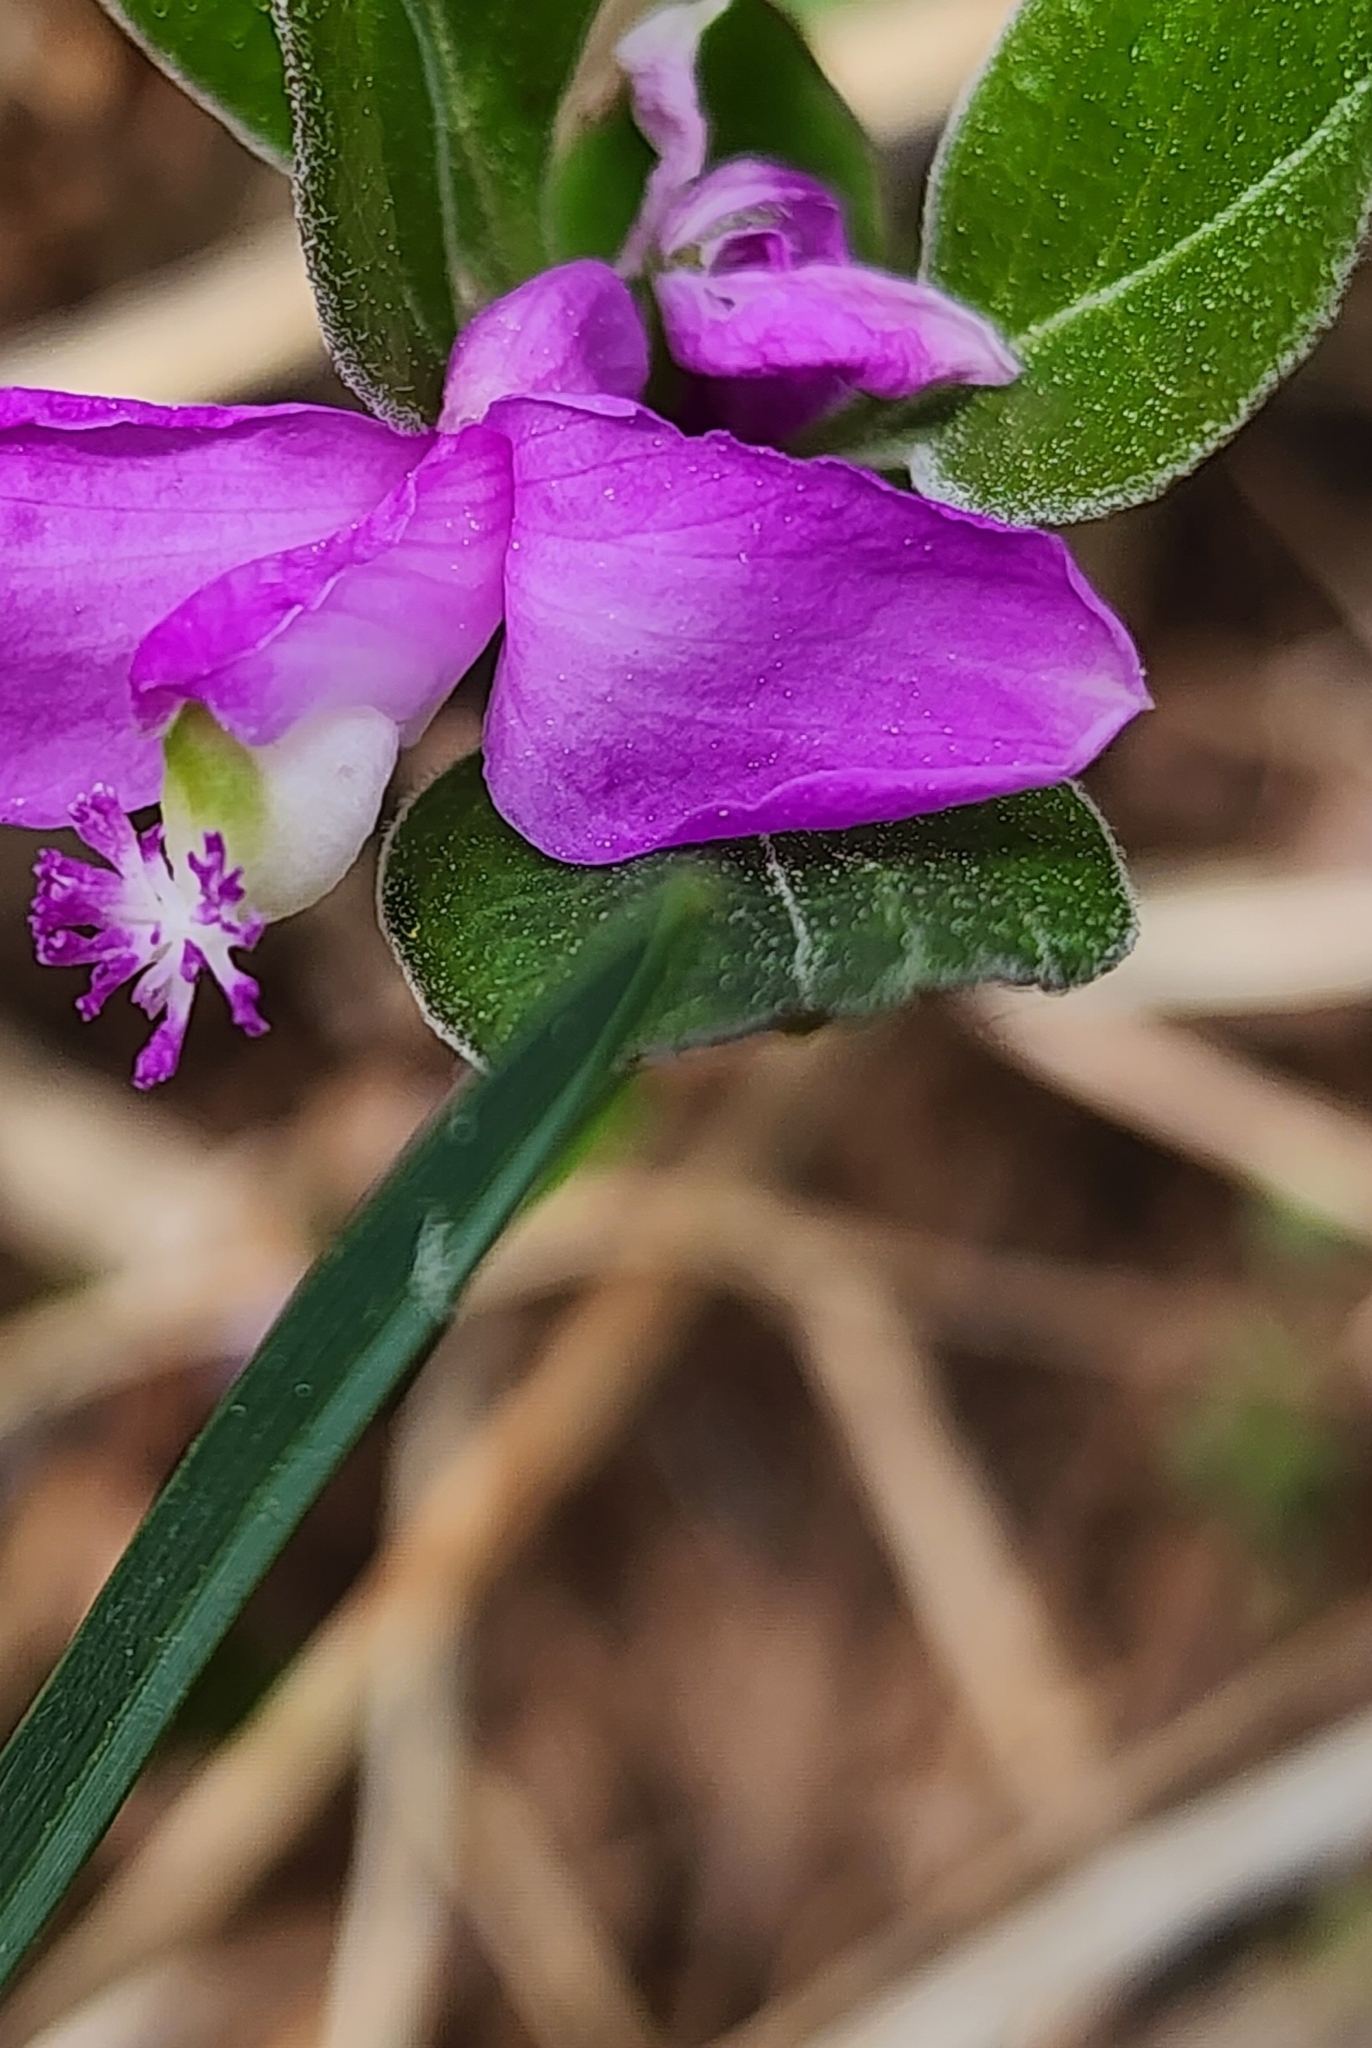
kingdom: Plantae
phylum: Tracheophyta
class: Magnoliopsida
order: Fabales
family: Polygalaceae
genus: Polygaloides
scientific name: Polygaloides paucifolia
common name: Bird-on-the-wing
